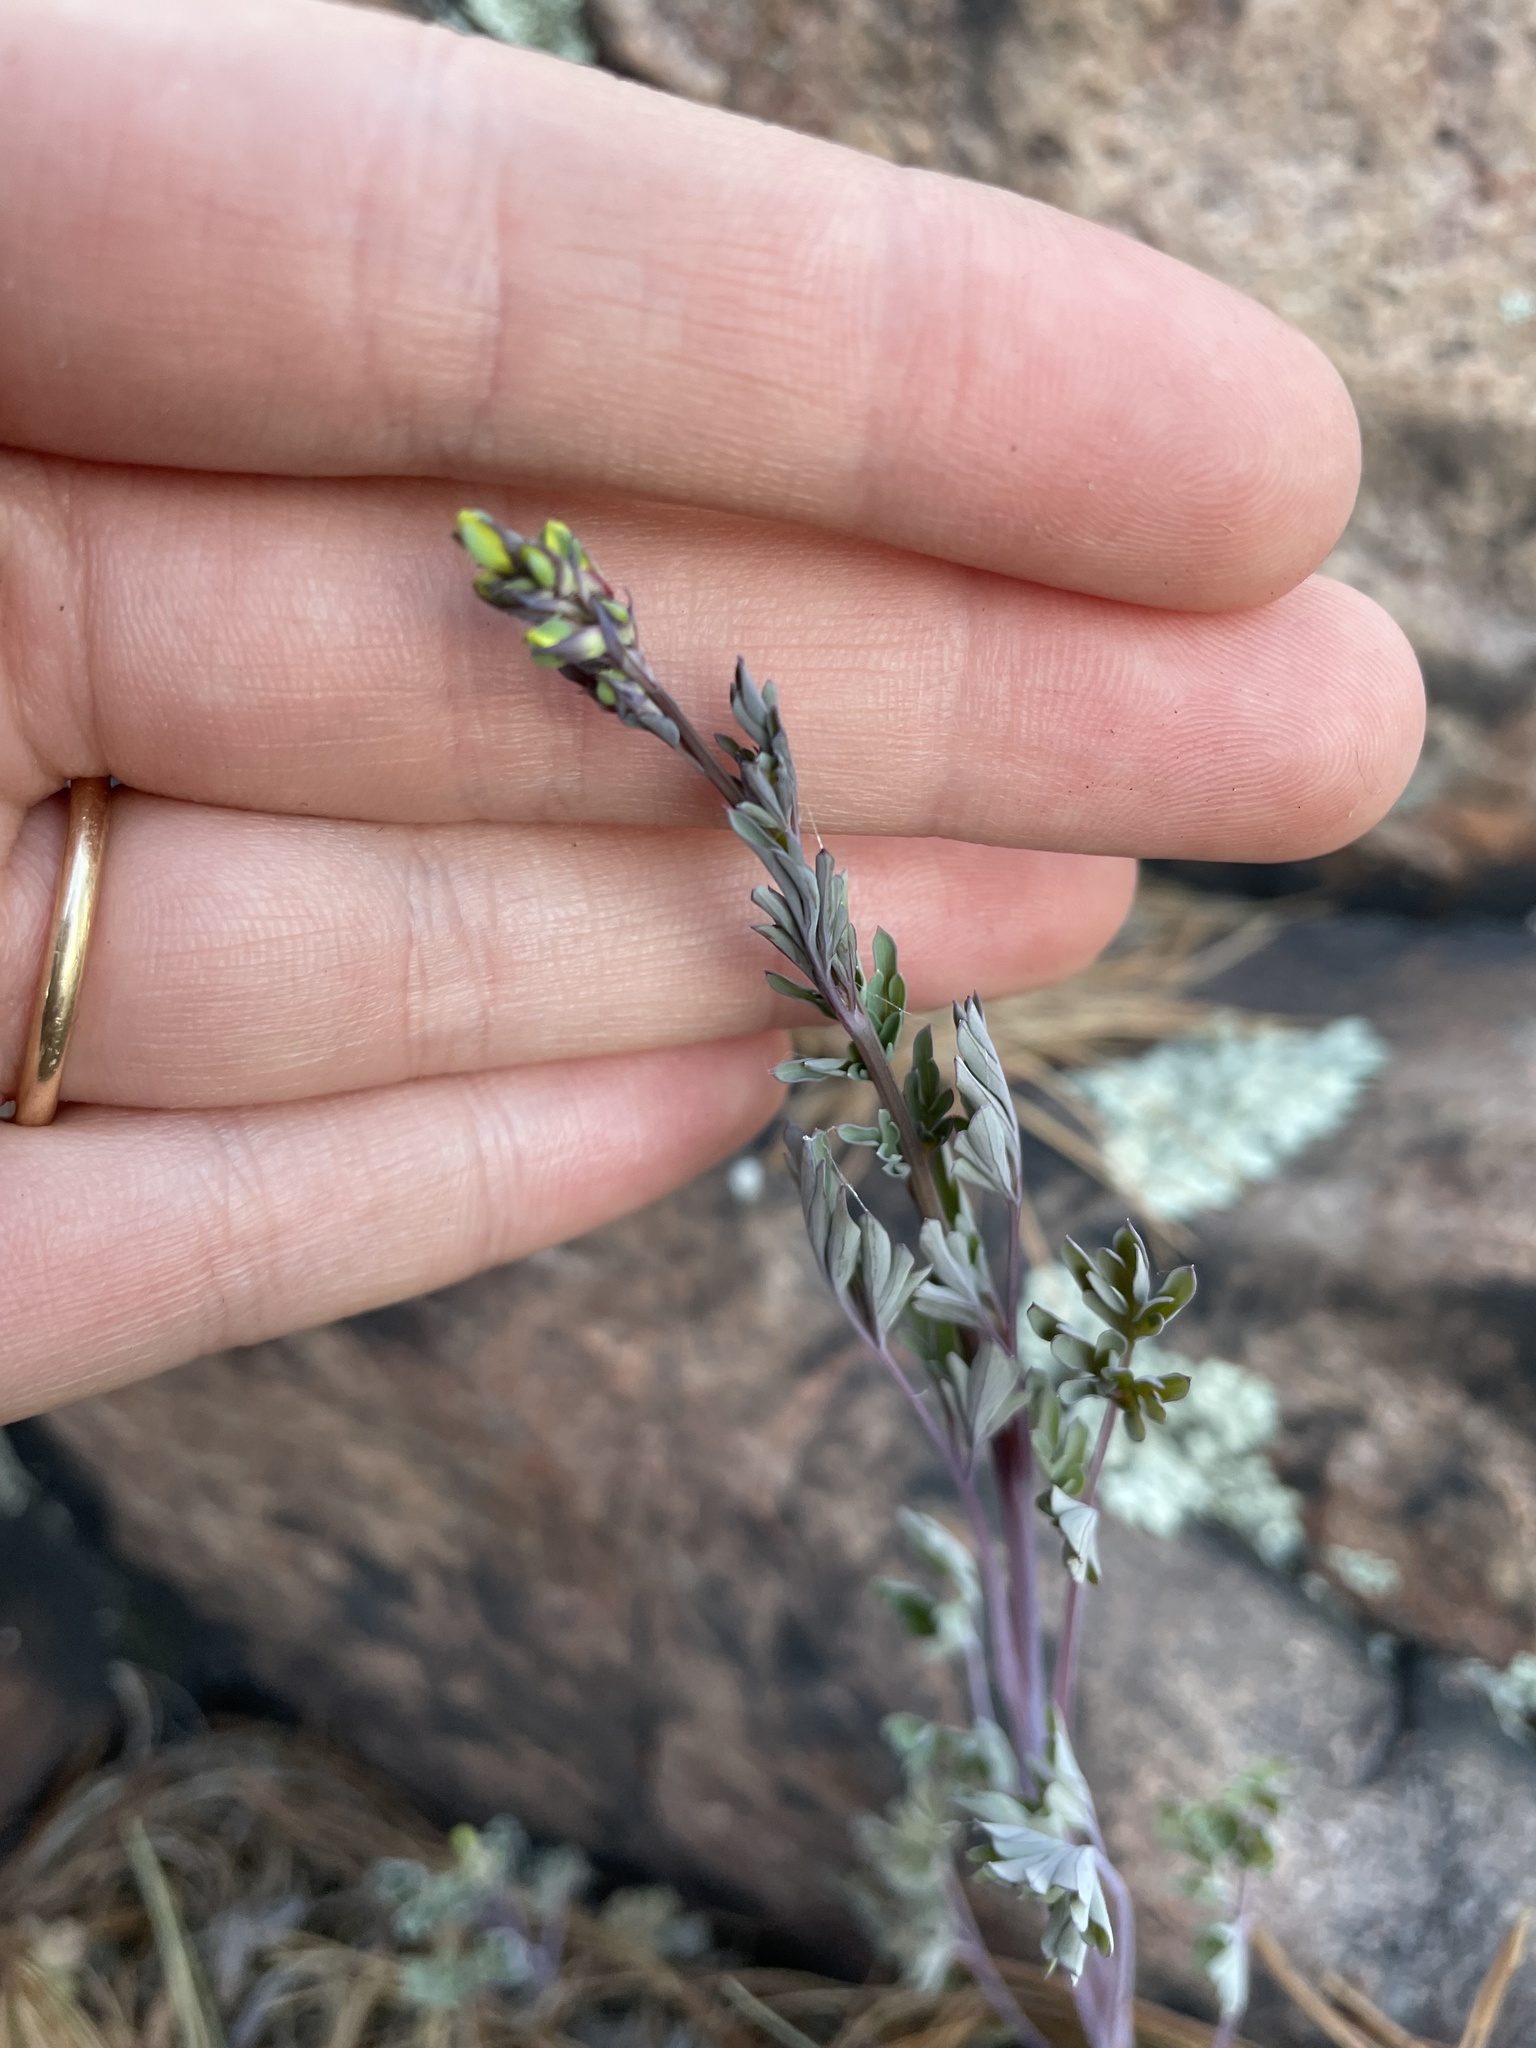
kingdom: Plantae
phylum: Tracheophyta
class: Magnoliopsida
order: Ranunculales
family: Papaveraceae
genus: Capnoides
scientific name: Capnoides sempervirens
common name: Rock harlequin
